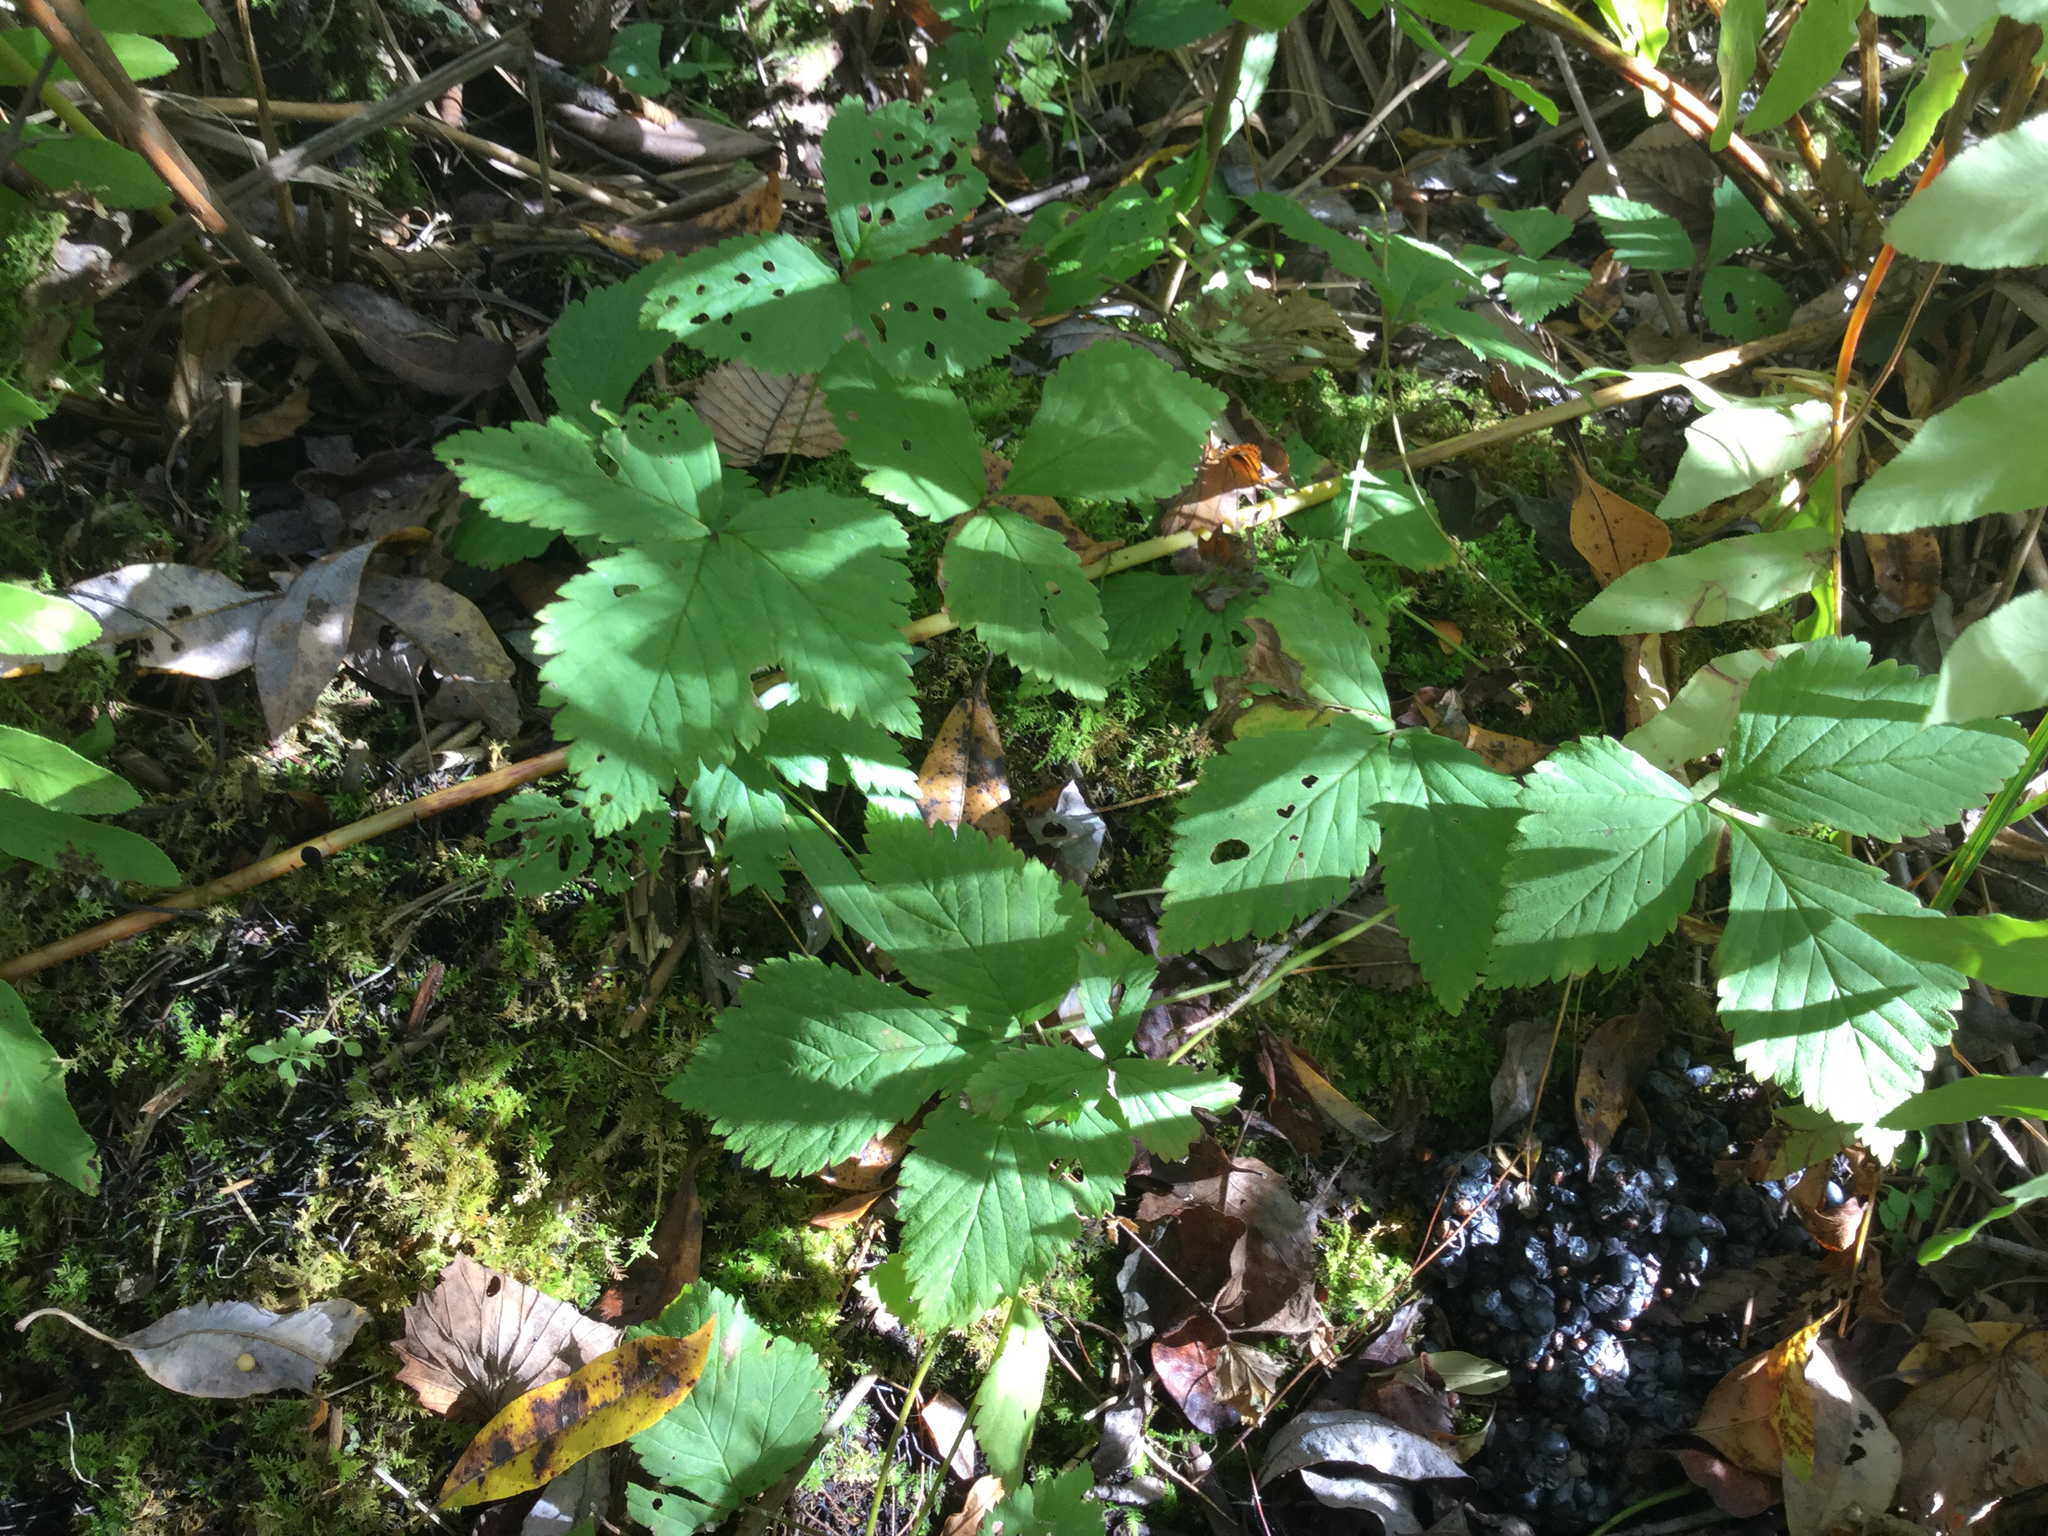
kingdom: Plantae
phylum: Tracheophyta
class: Magnoliopsida
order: Rosales
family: Rosaceae
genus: Rubus
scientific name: Rubus pubescens
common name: Dwarf raspberry
